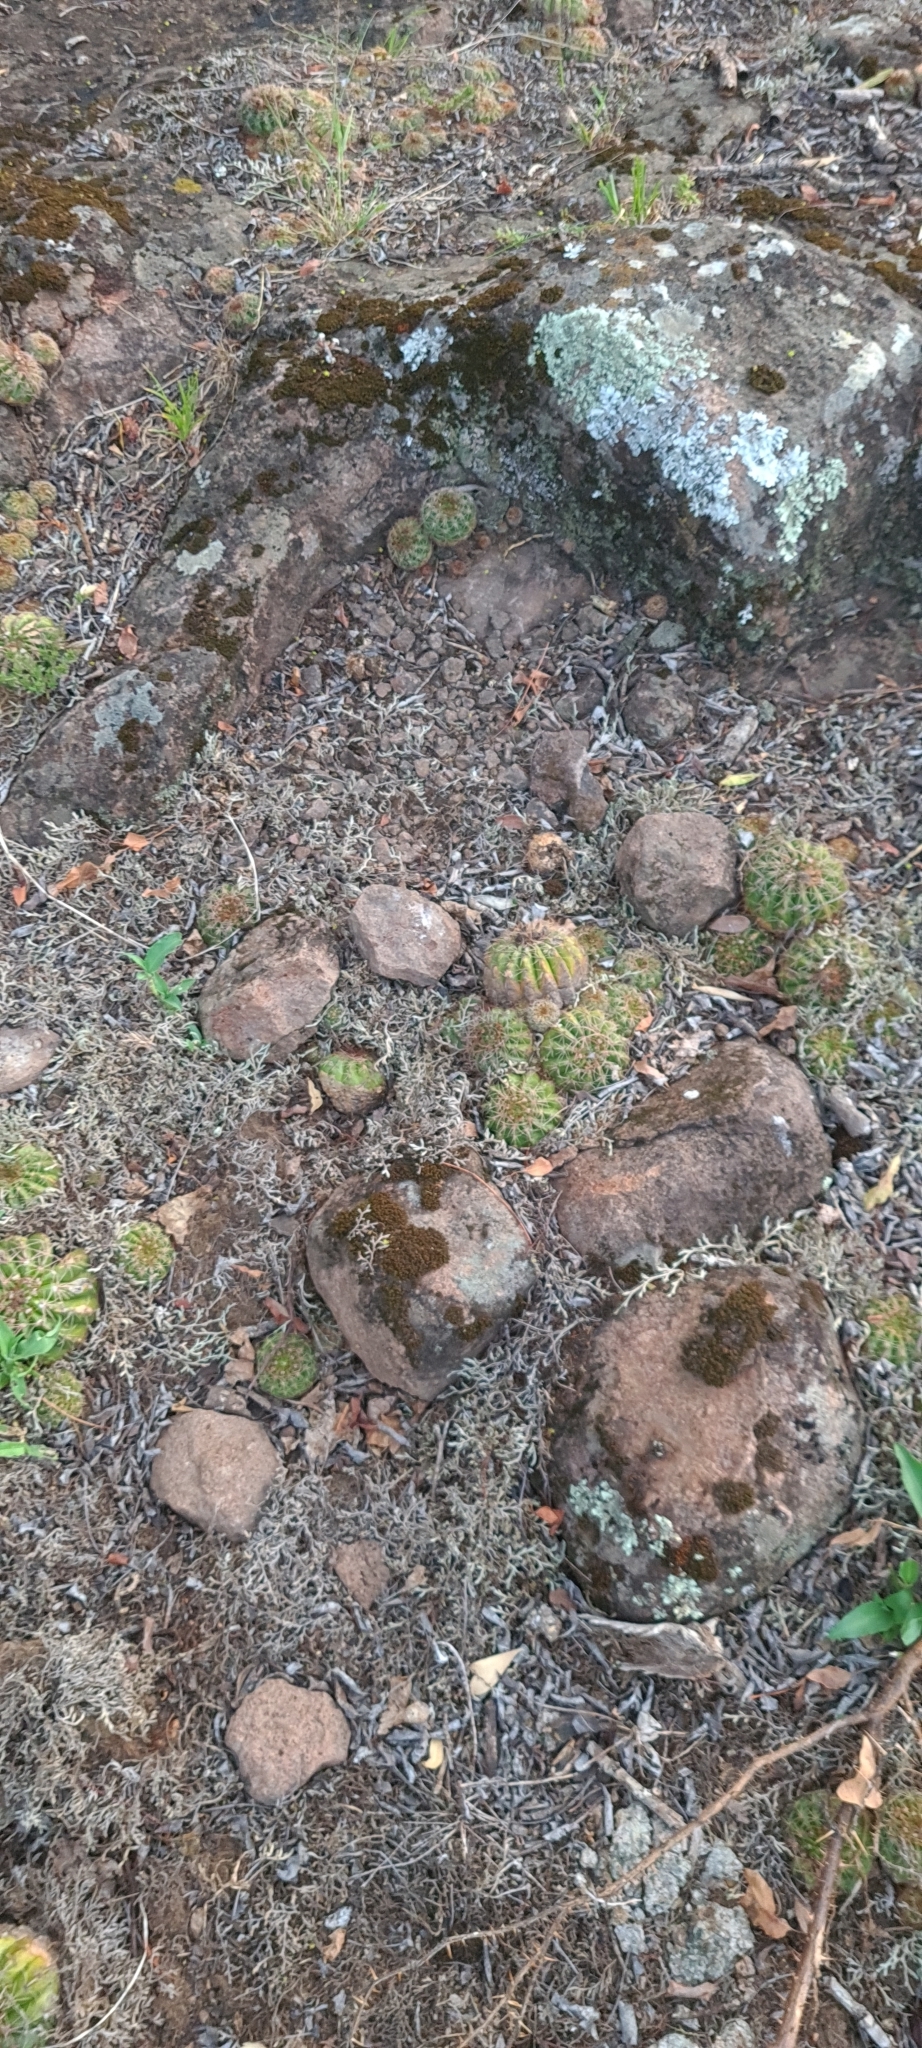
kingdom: Plantae
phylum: Tracheophyta
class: Magnoliopsida
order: Caryophyllales
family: Cactaceae
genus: Parodia
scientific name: Parodia linkii
